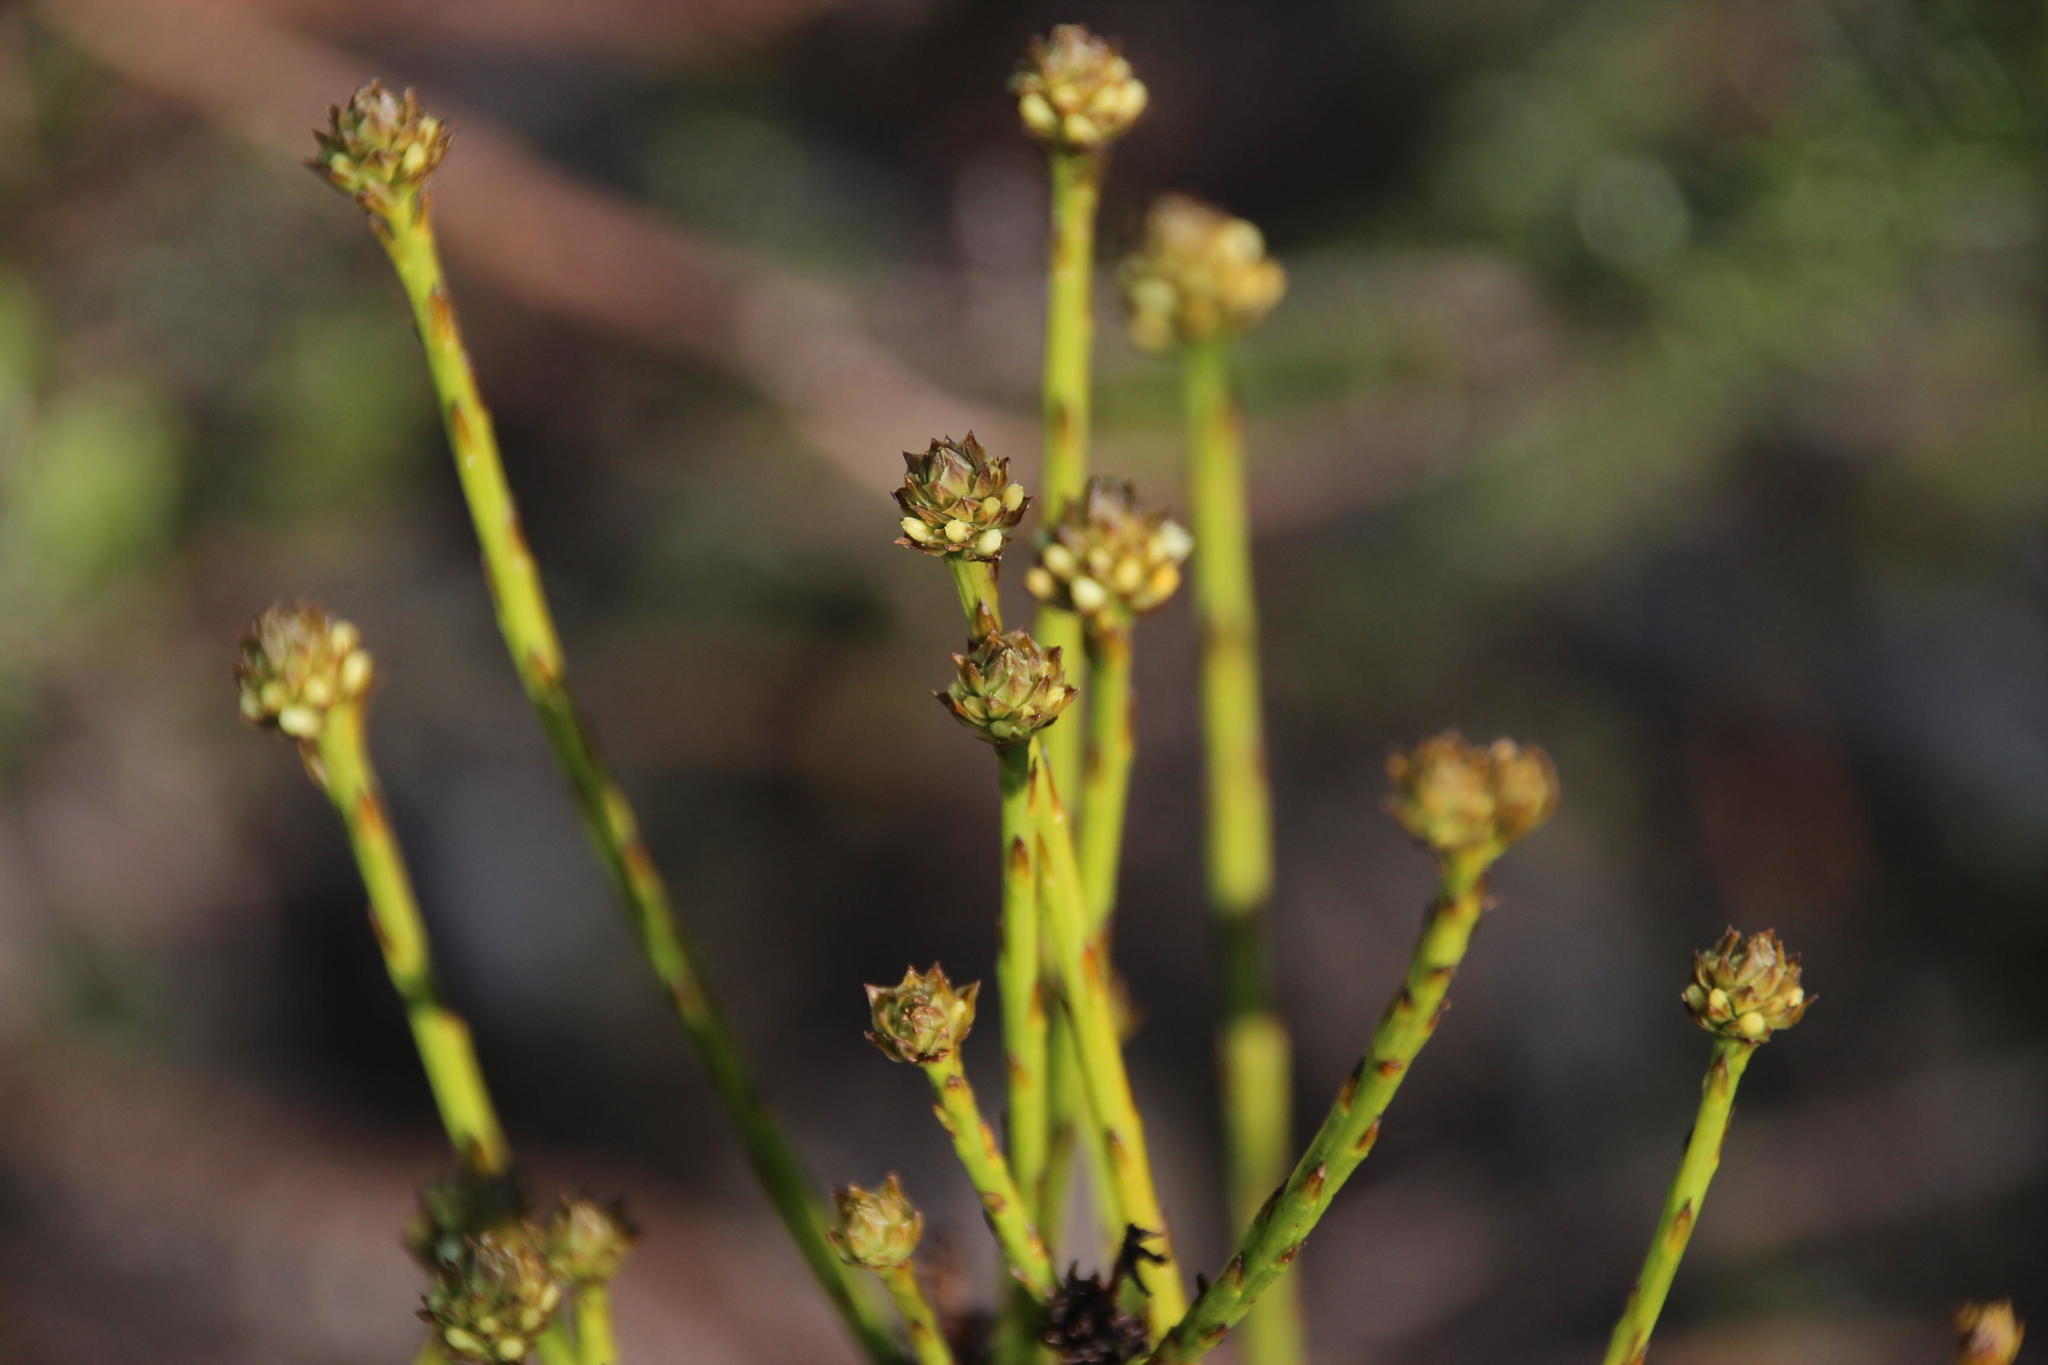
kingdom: Plantae
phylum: Tracheophyta
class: Magnoliopsida
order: Santalales
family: Thesiaceae
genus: Thesium
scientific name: Thesium aggregatum
